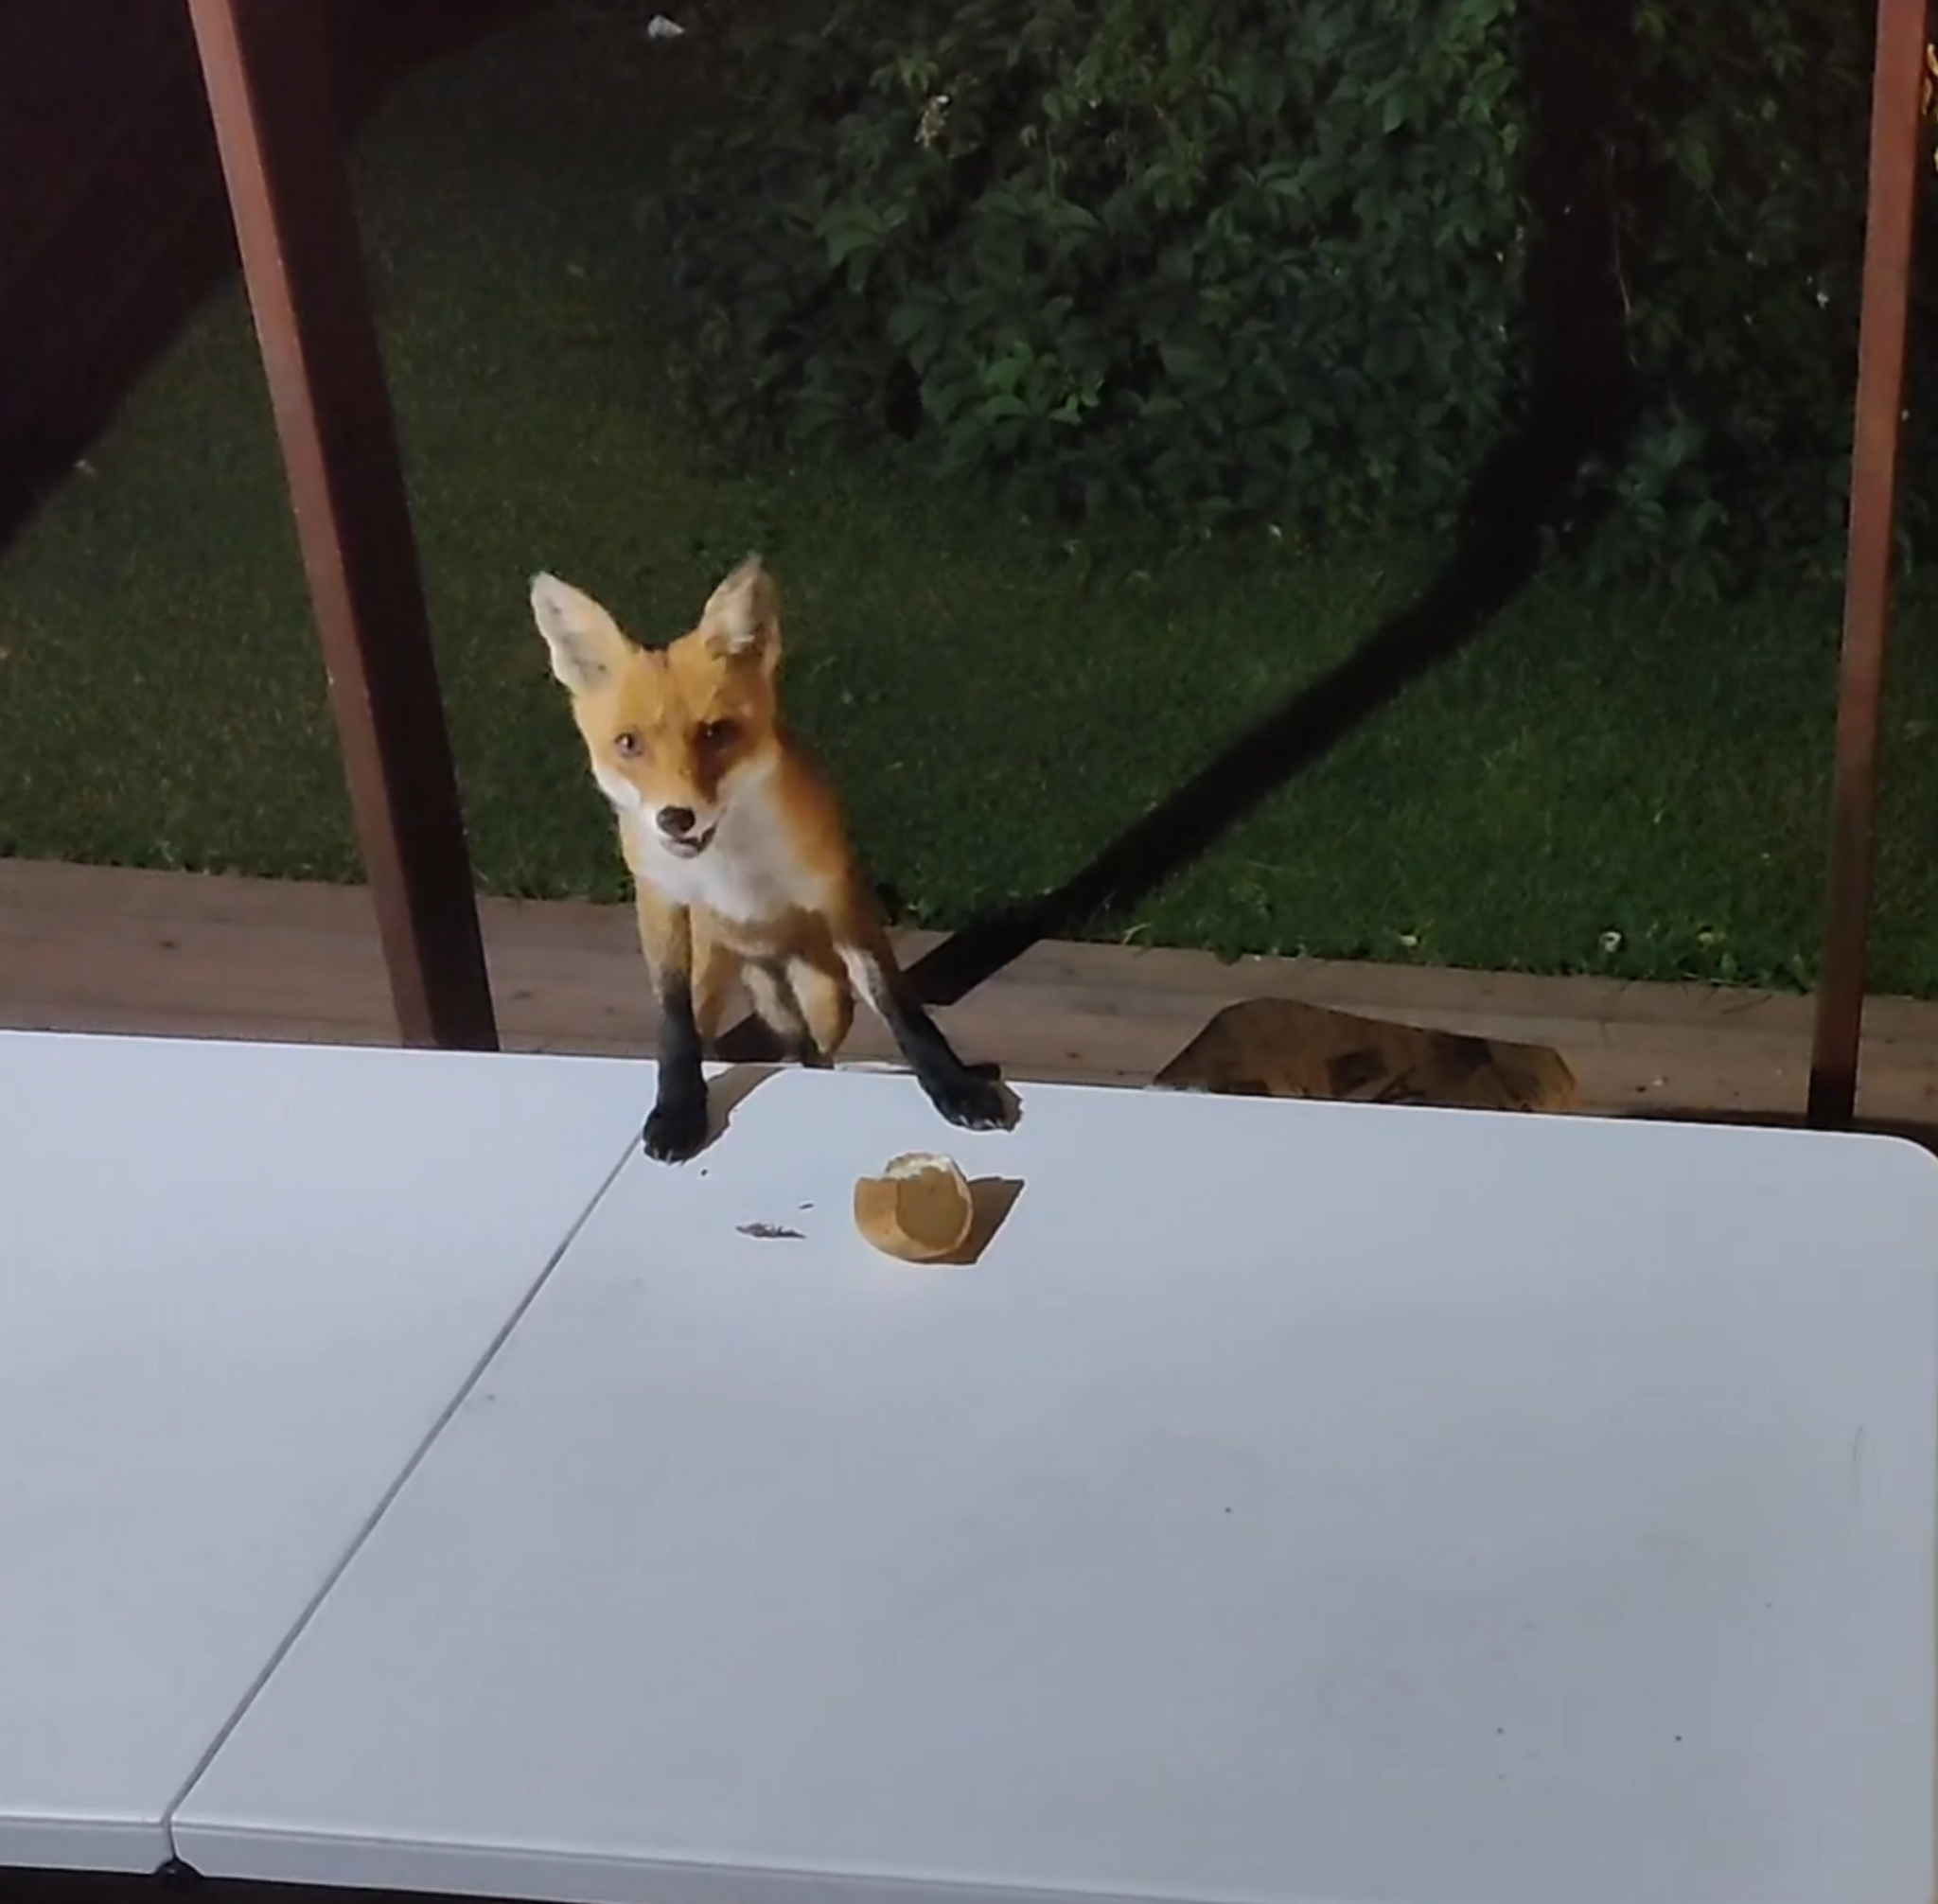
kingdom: Animalia
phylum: Chordata
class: Mammalia
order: Carnivora
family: Canidae
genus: Vulpes
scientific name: Vulpes vulpes
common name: Red fox
